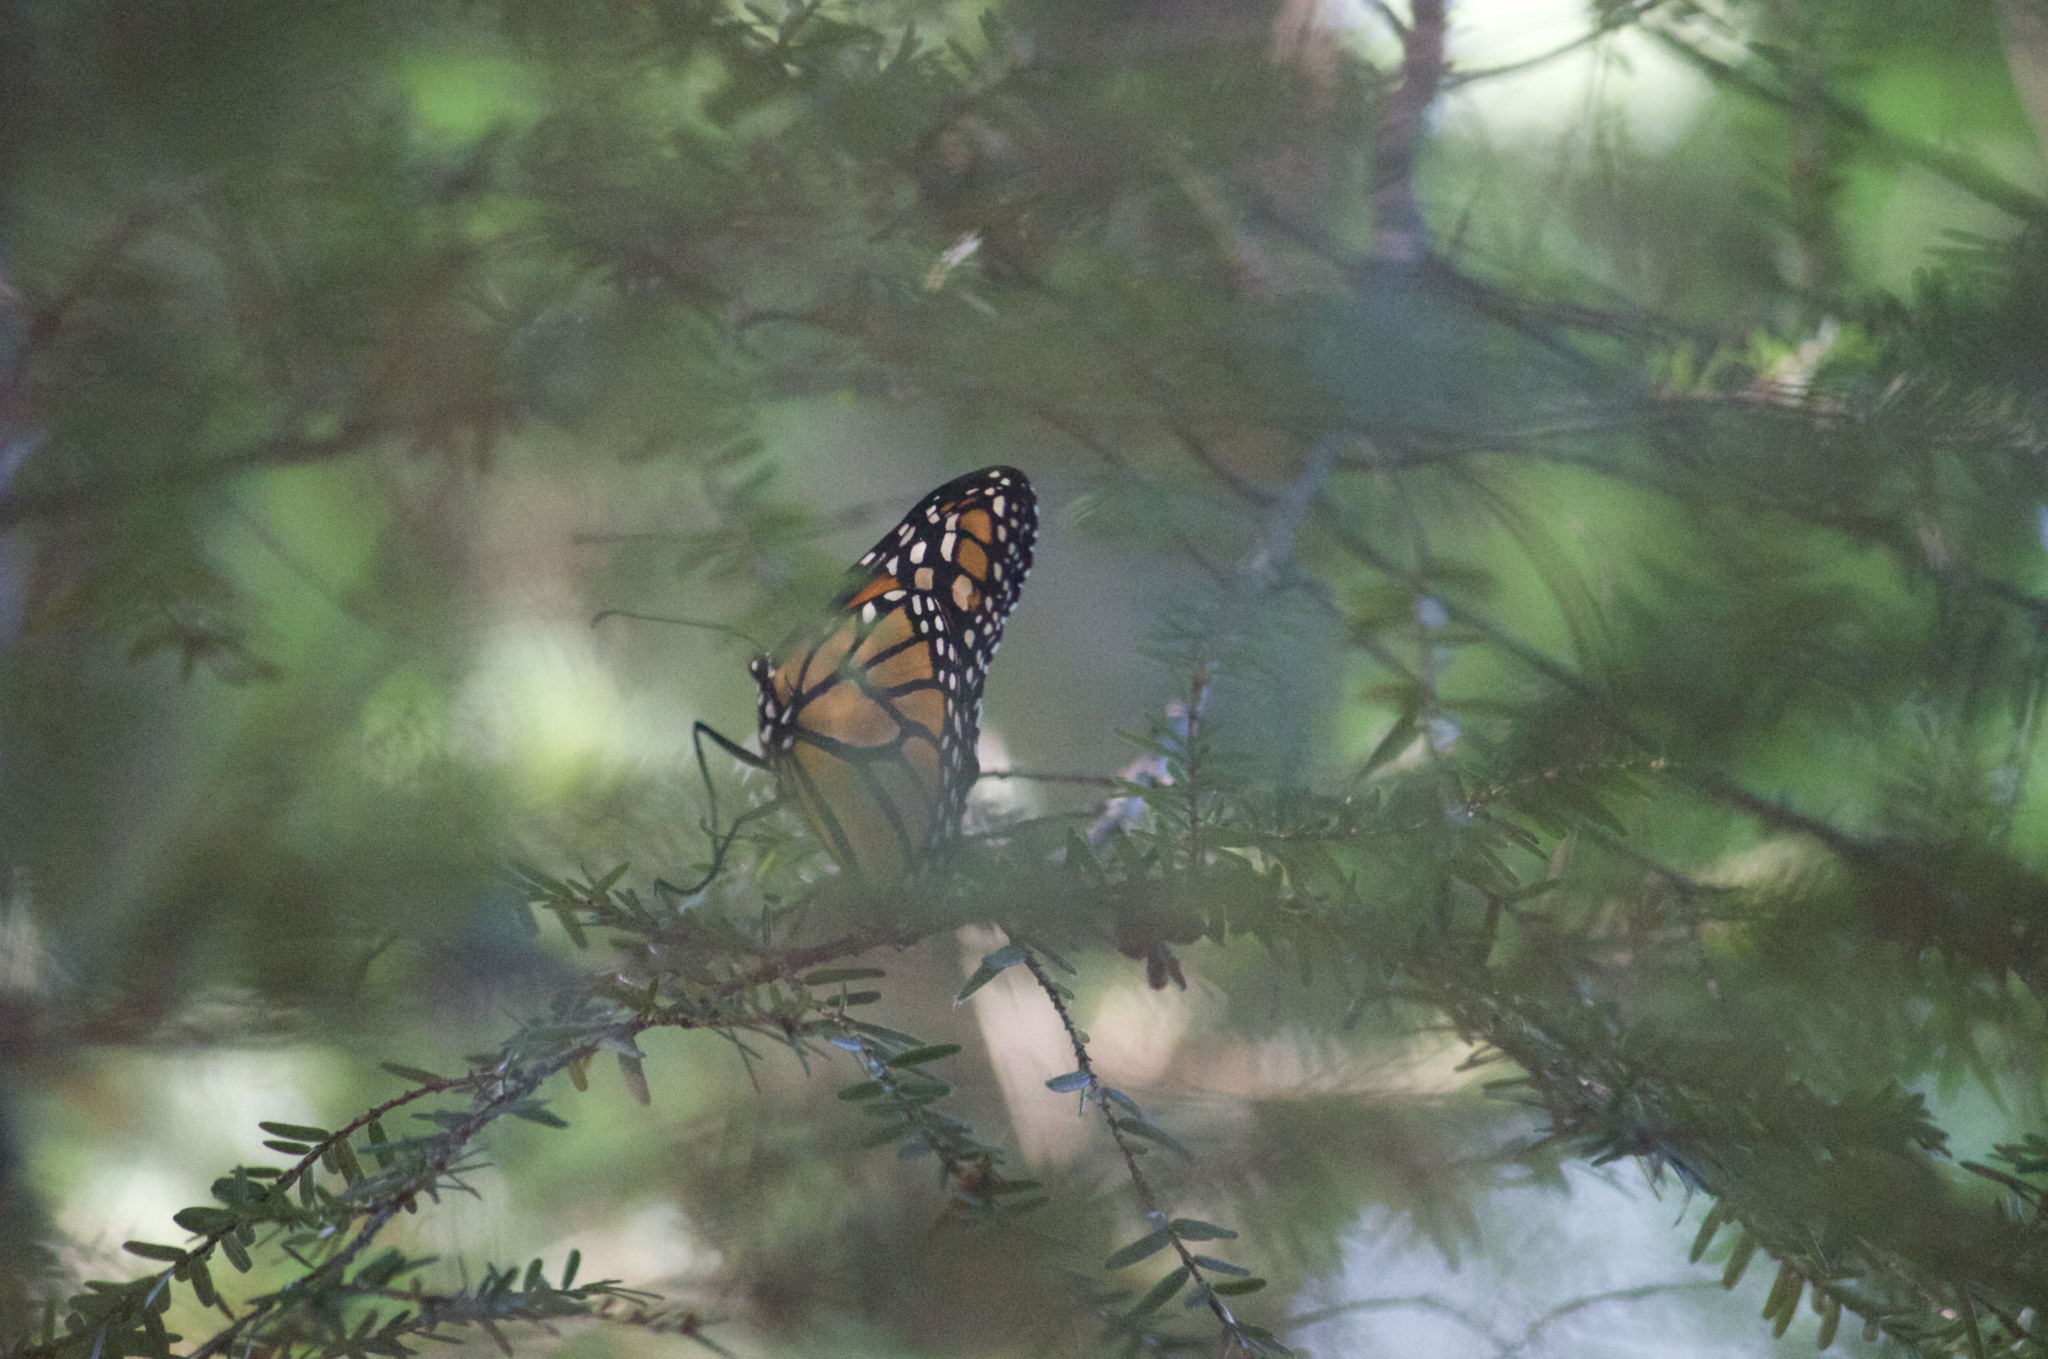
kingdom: Animalia
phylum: Arthropoda
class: Insecta
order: Lepidoptera
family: Nymphalidae
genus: Danaus
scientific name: Danaus plexippus
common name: Monarch
